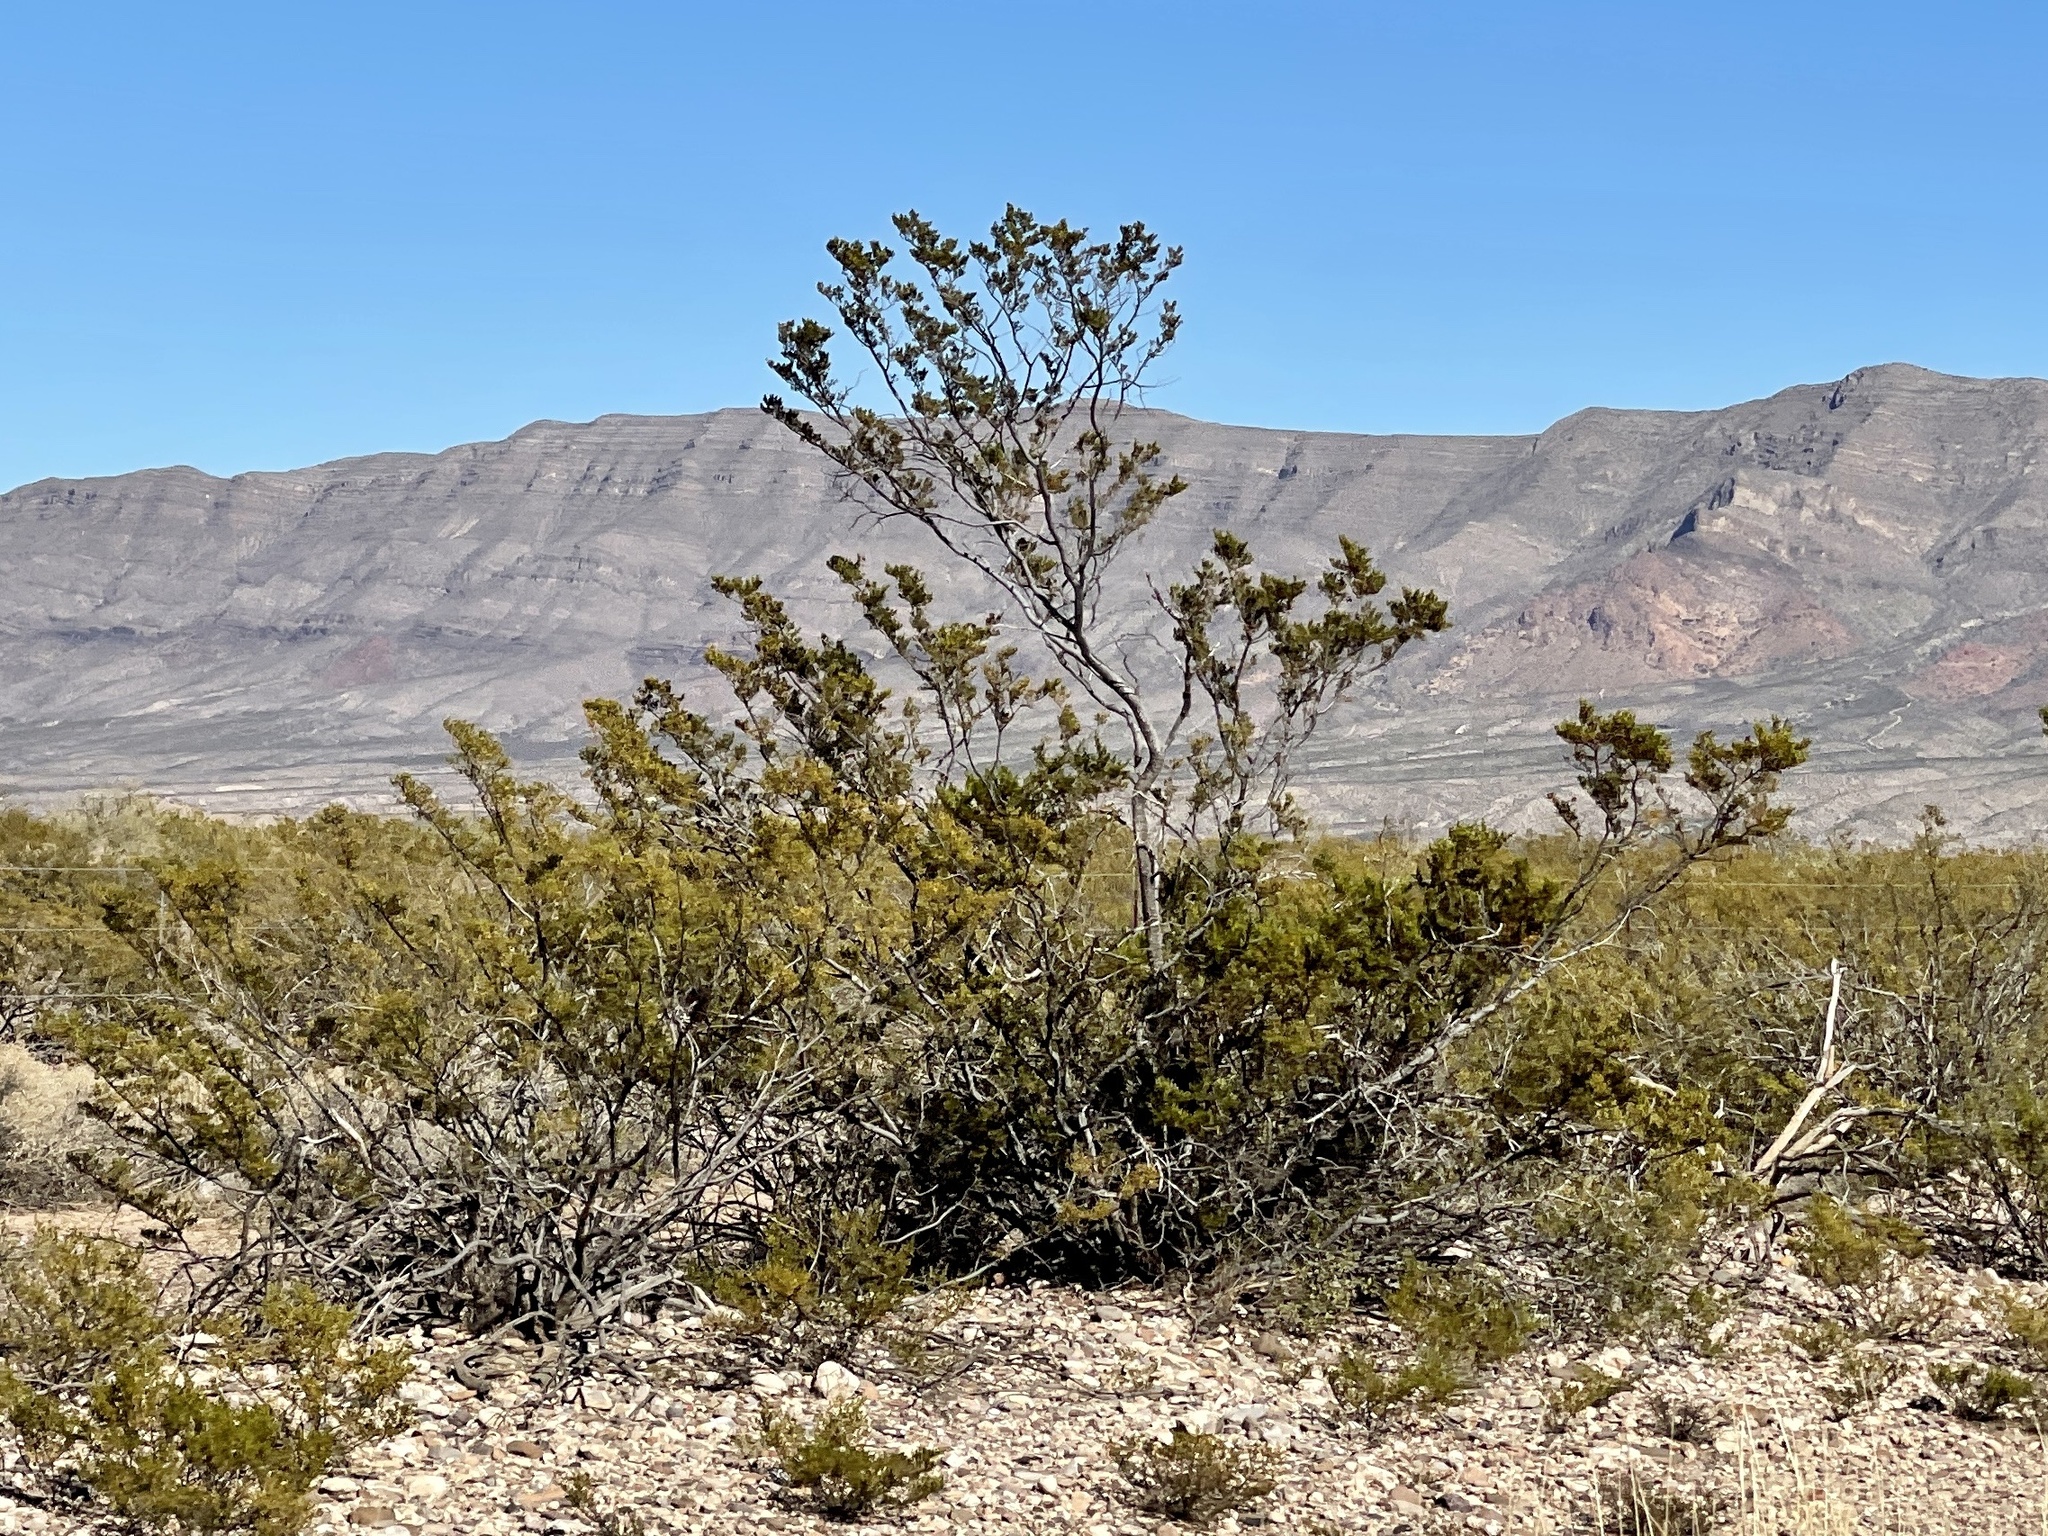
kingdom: Plantae
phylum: Tracheophyta
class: Magnoliopsida
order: Zygophyllales
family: Zygophyllaceae
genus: Larrea
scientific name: Larrea tridentata
